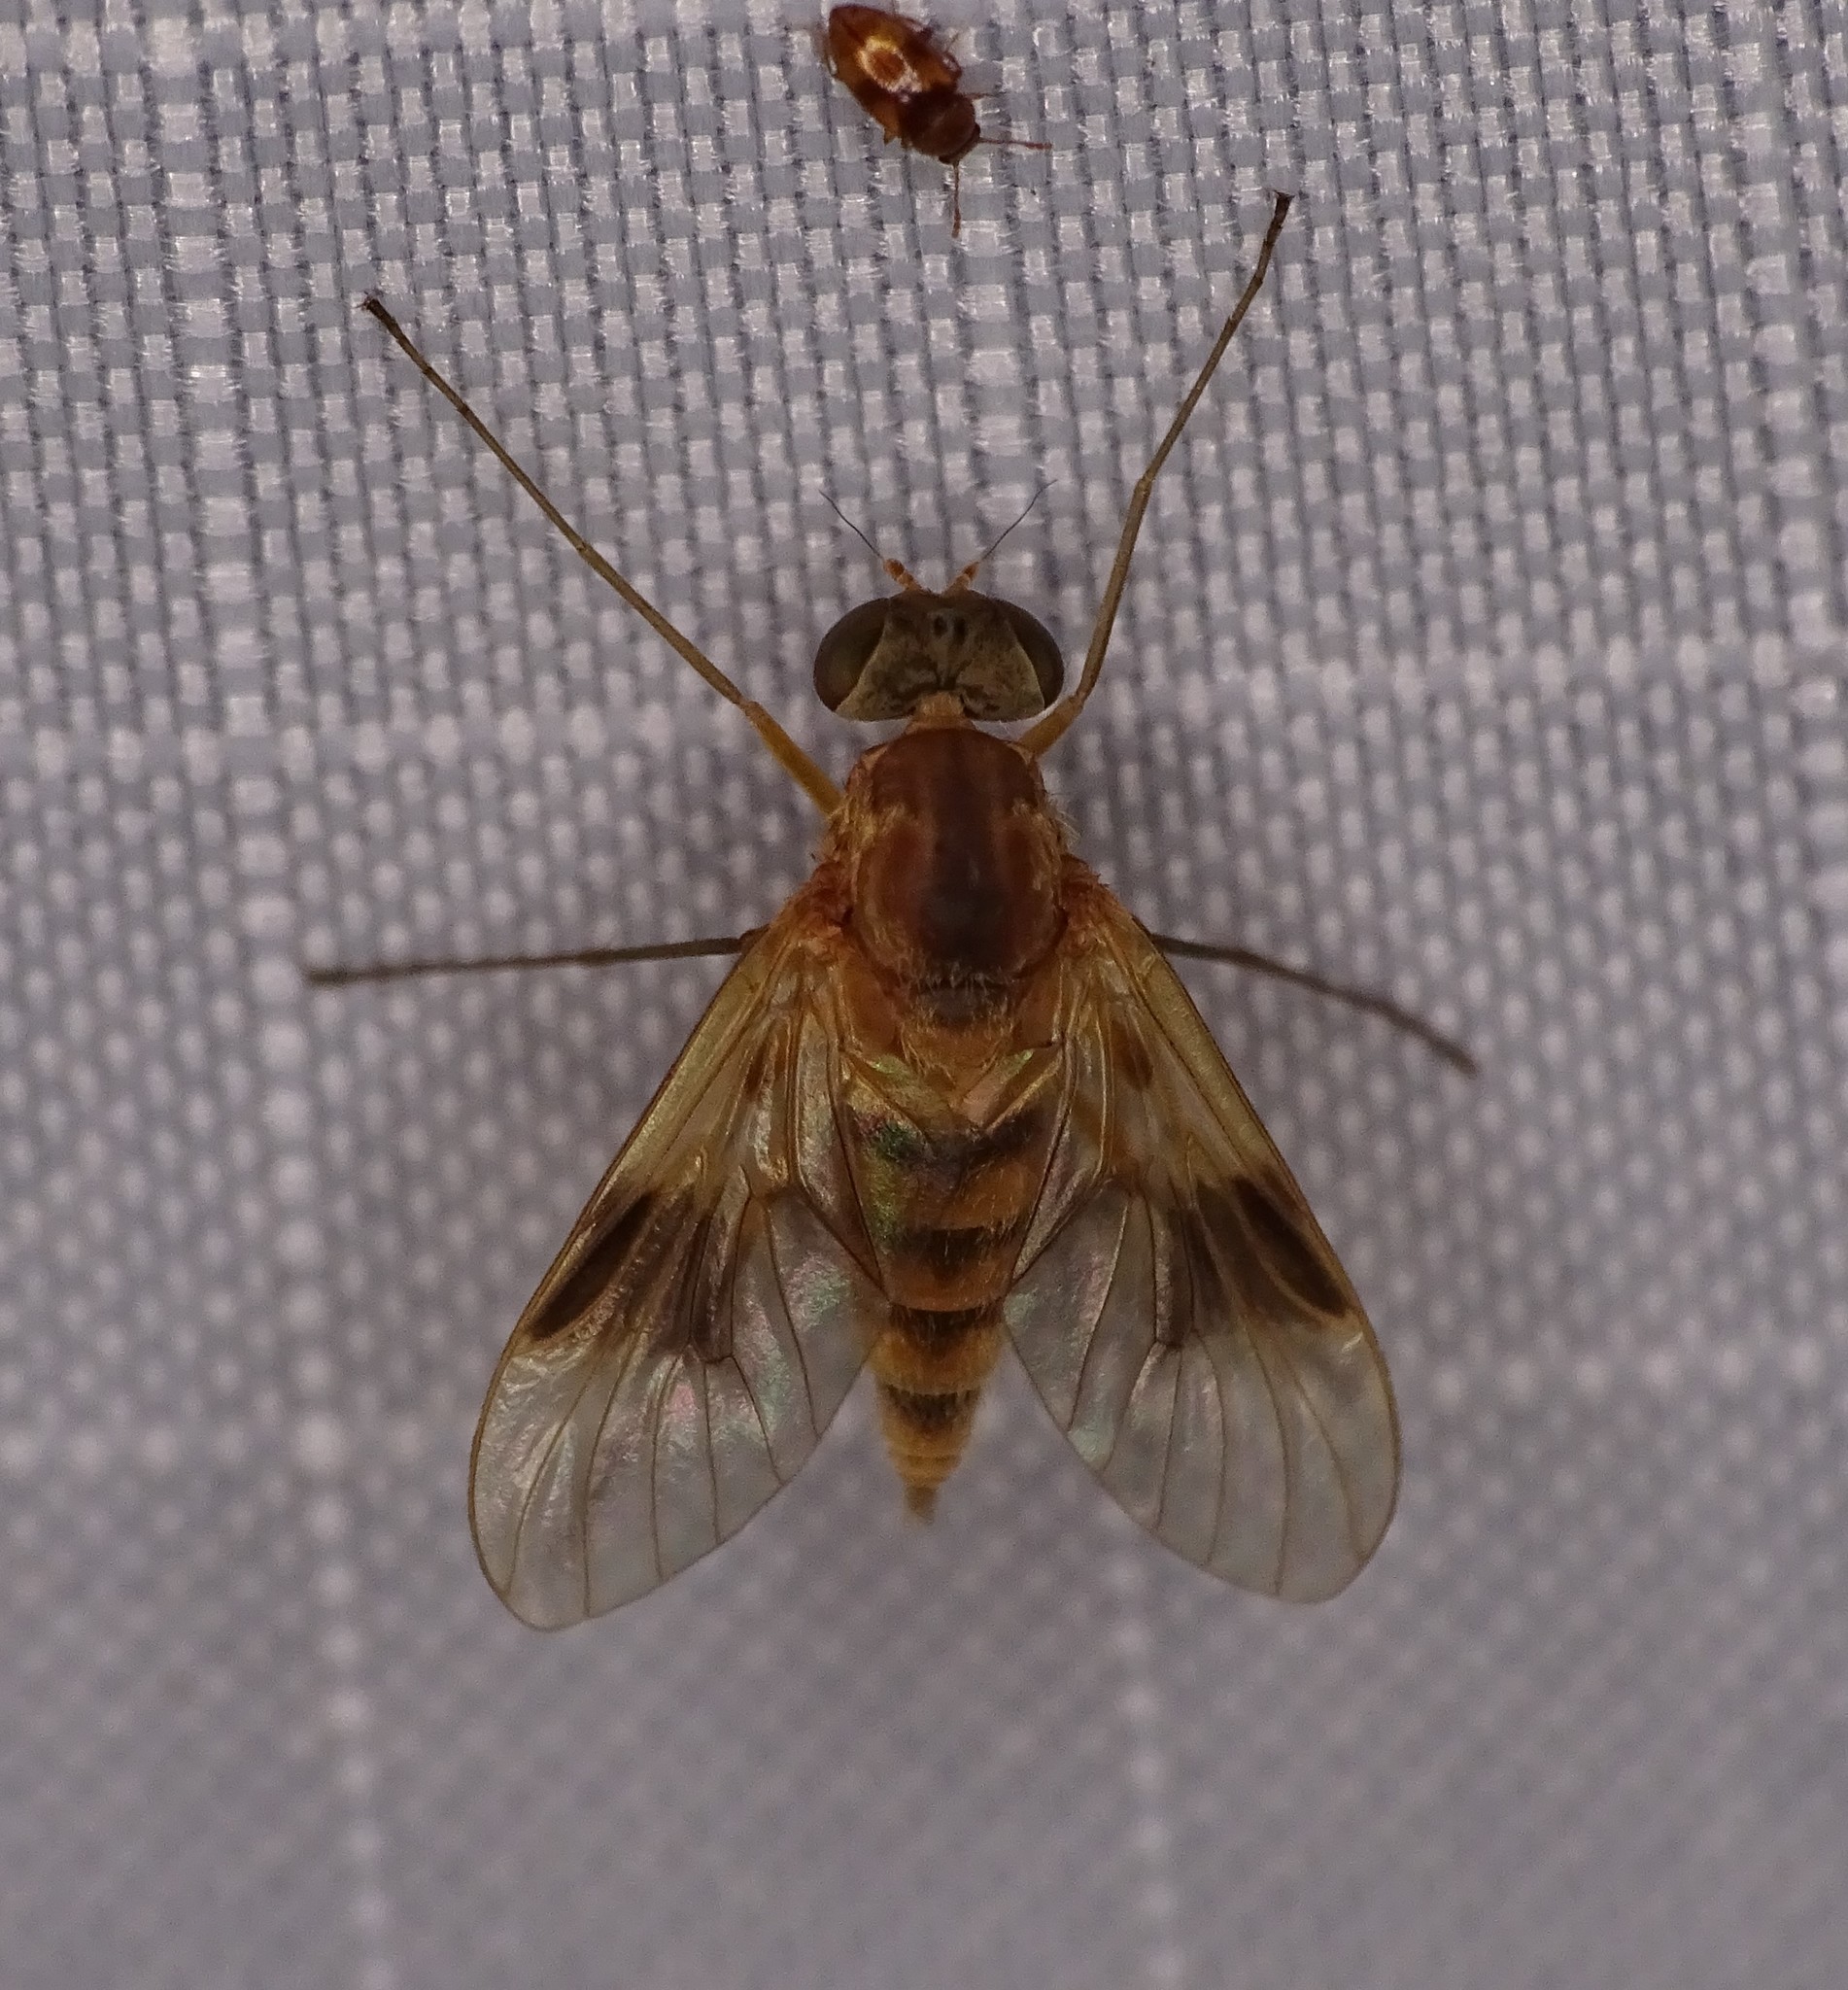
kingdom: Animalia
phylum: Arthropoda
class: Insecta
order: Diptera
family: Rhagionidae
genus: Chrysopilus
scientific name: Chrysopilus quadratus
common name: Quadrate snipe fly
